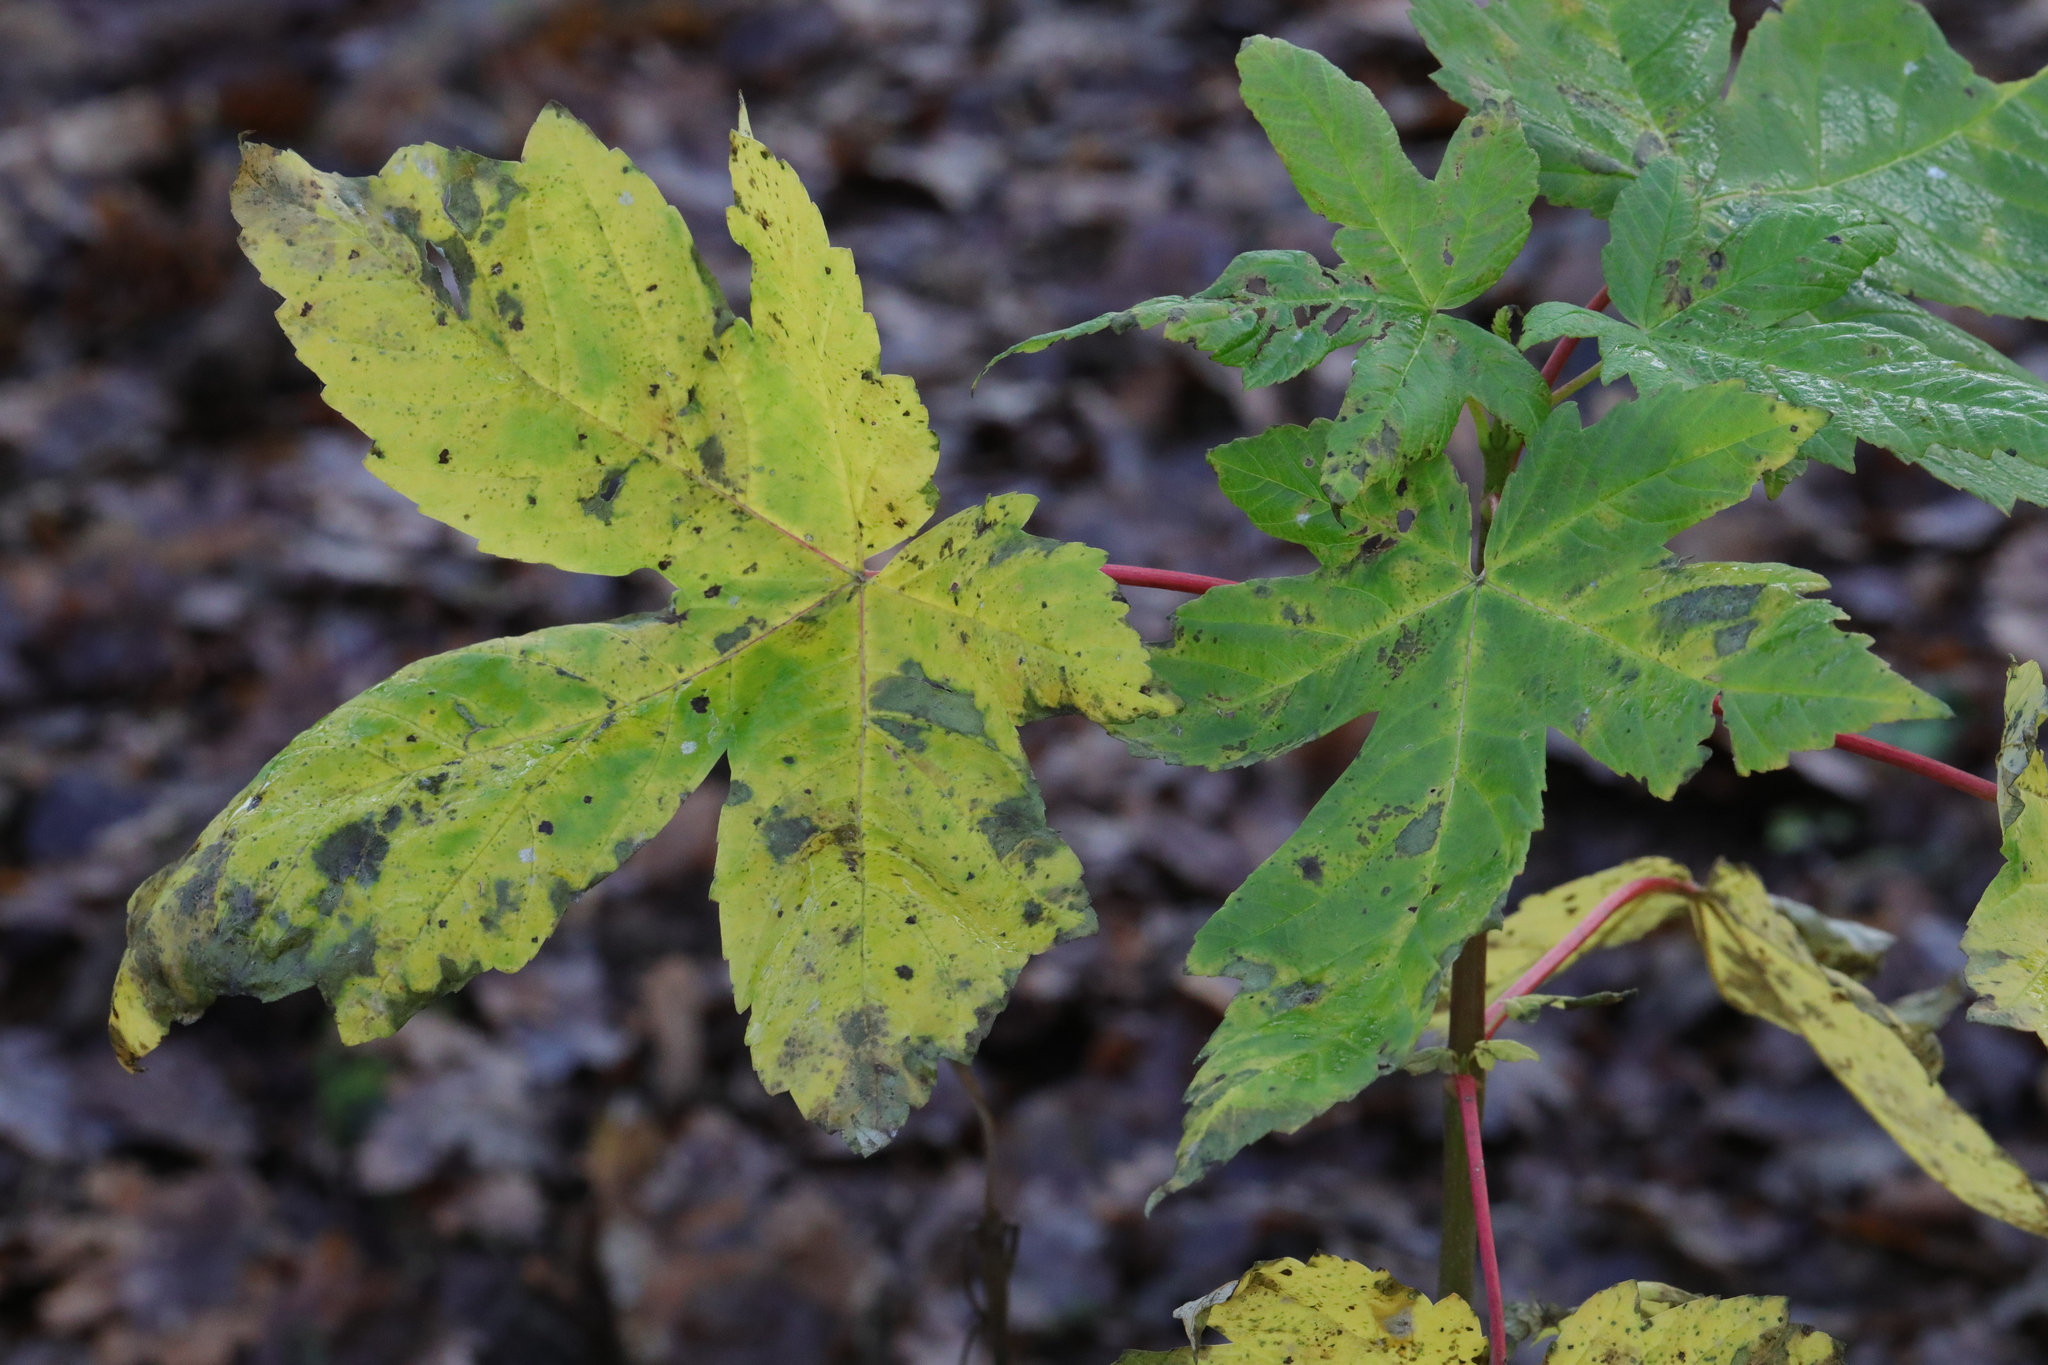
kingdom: Plantae
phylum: Tracheophyta
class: Magnoliopsida
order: Sapindales
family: Sapindaceae
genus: Acer
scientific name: Acer pseudoplatanus
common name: Sycamore
